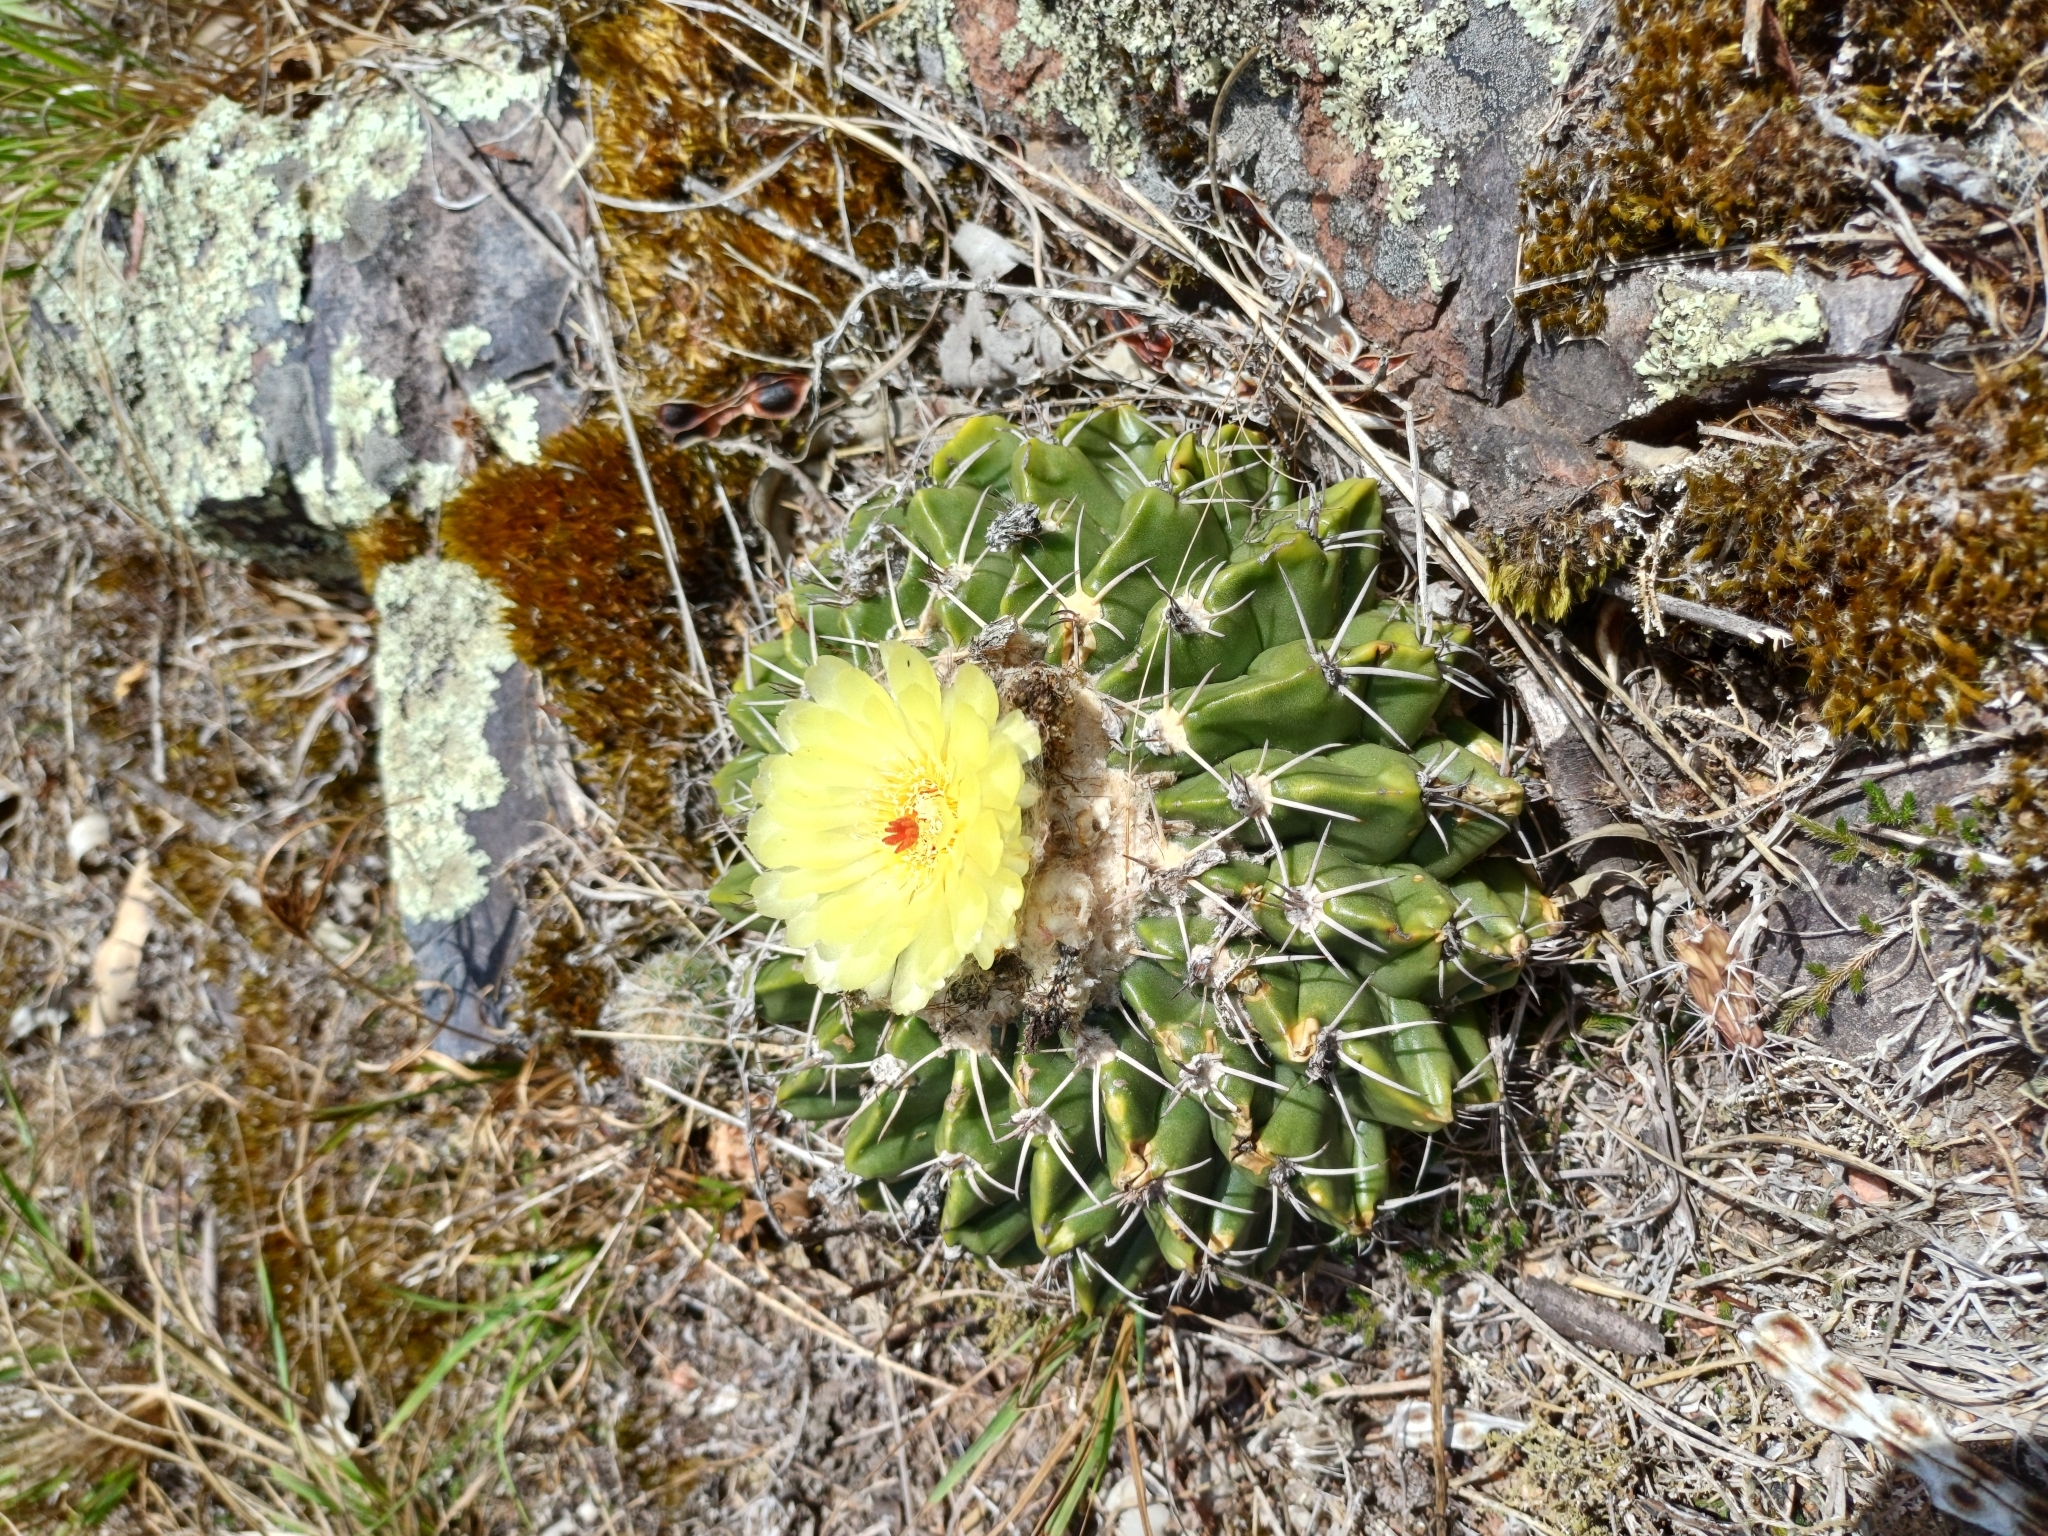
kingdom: Plantae
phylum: Tracheophyta
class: Magnoliopsida
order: Caryophyllales
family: Cactaceae
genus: Parodia
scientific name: Parodia erinacea
